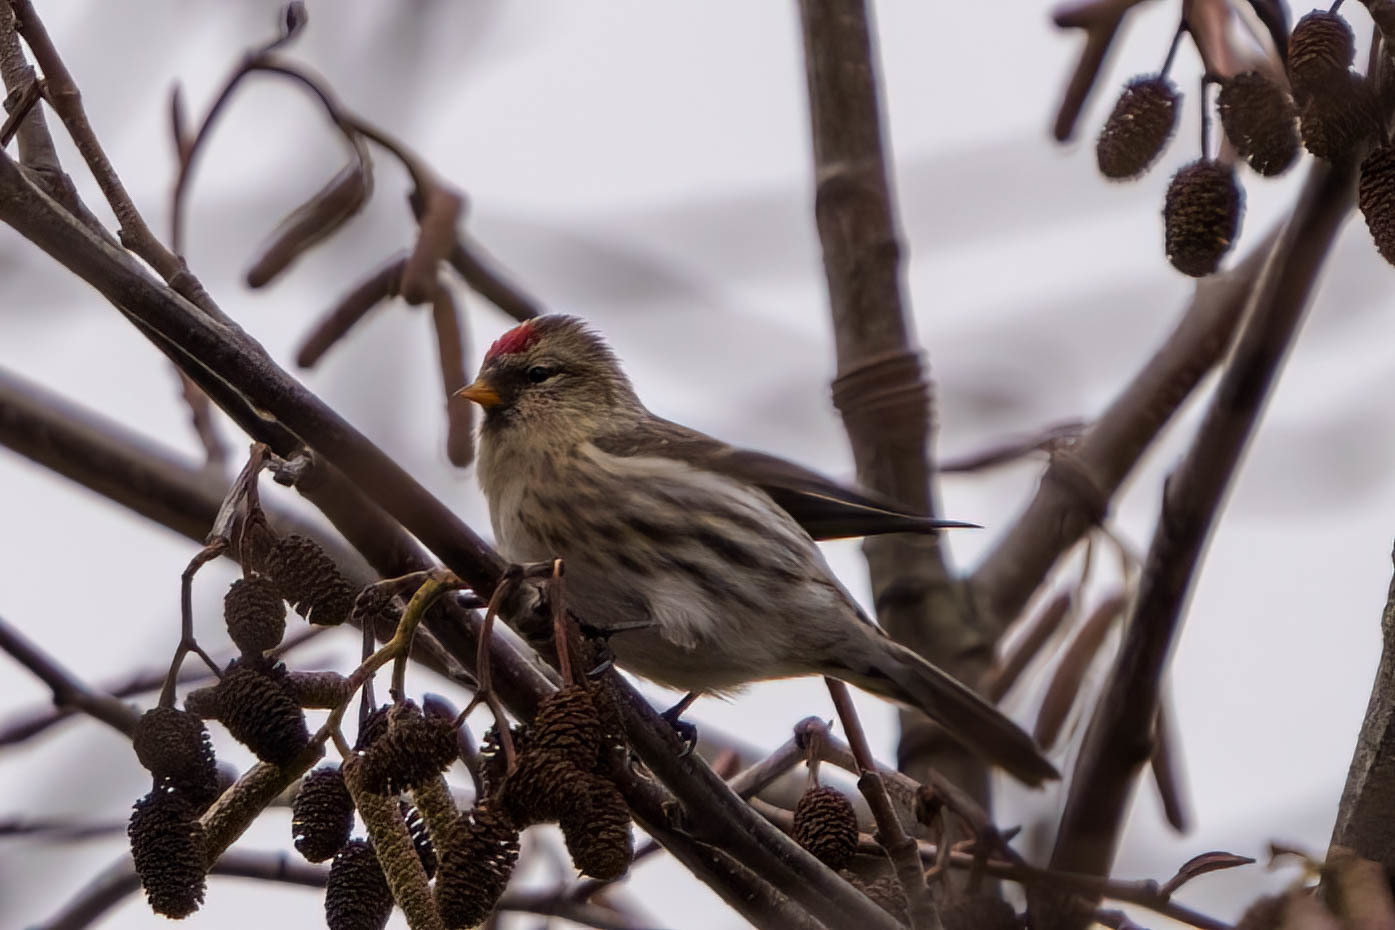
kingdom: Animalia
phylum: Chordata
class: Aves
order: Passeriformes
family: Fringillidae
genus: Acanthis
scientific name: Acanthis flammea
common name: Common redpoll
